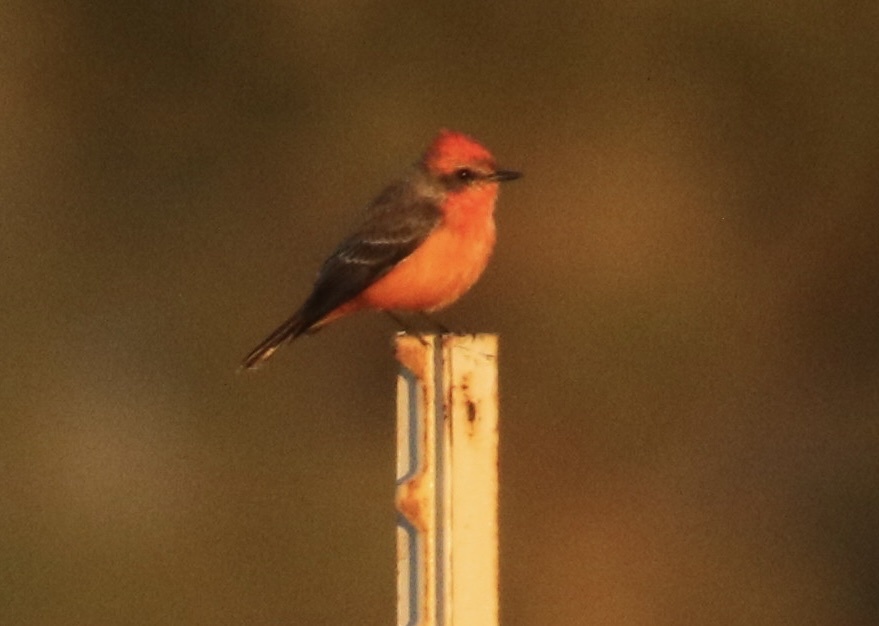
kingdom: Animalia
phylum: Chordata
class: Aves
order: Passeriformes
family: Tyrannidae
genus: Pyrocephalus
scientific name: Pyrocephalus rubinus
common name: Vermilion flycatcher
